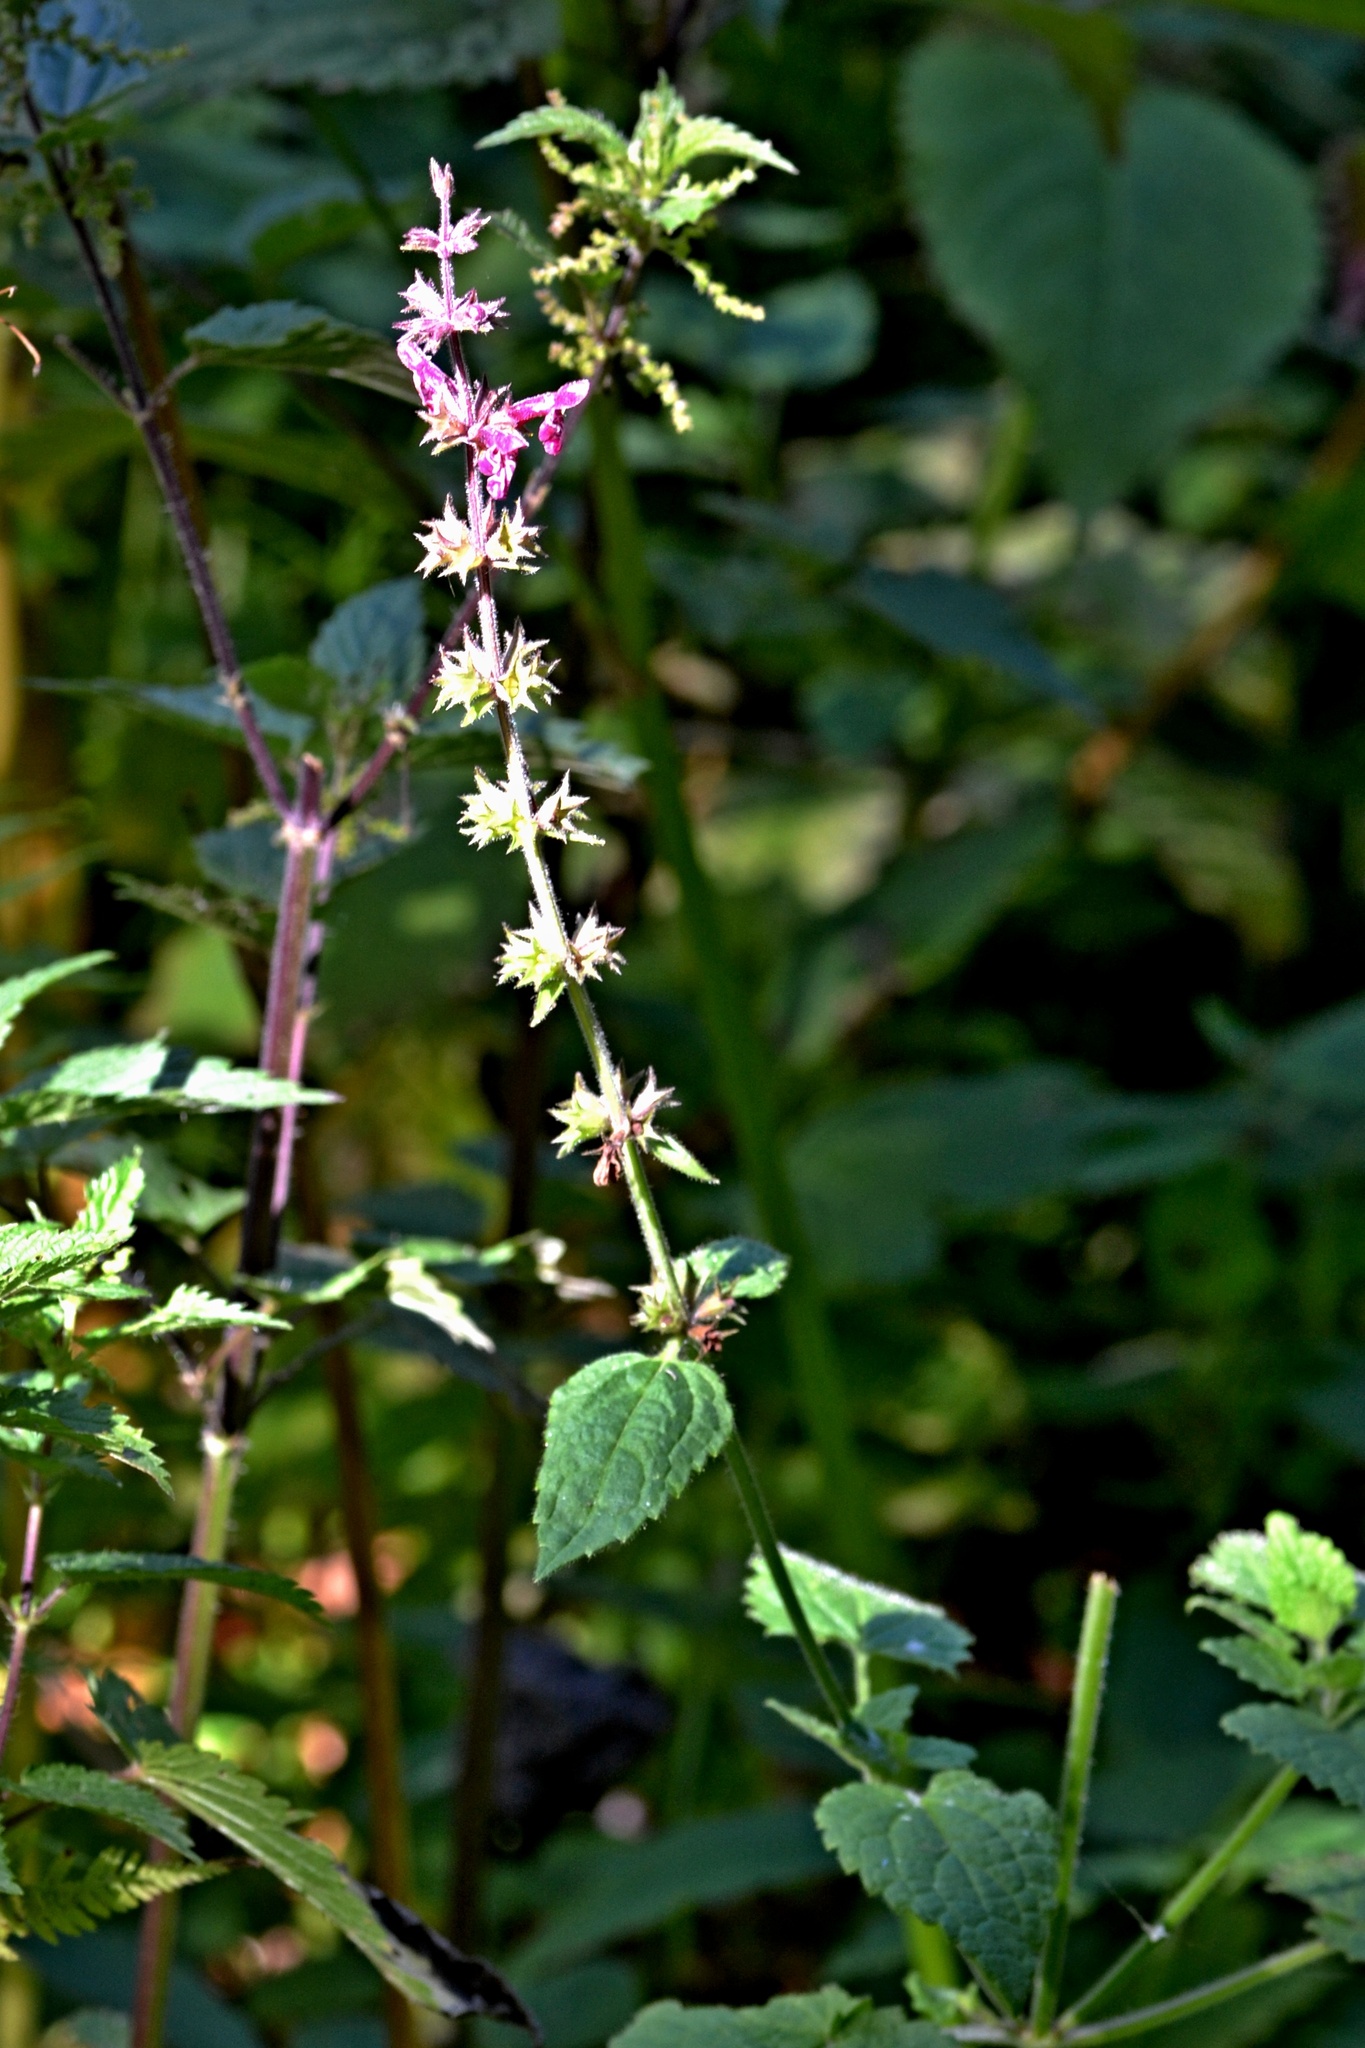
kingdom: Plantae
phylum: Tracheophyta
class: Magnoliopsida
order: Lamiales
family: Lamiaceae
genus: Stachys
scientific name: Stachys sylvatica
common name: Hedge woundwort
